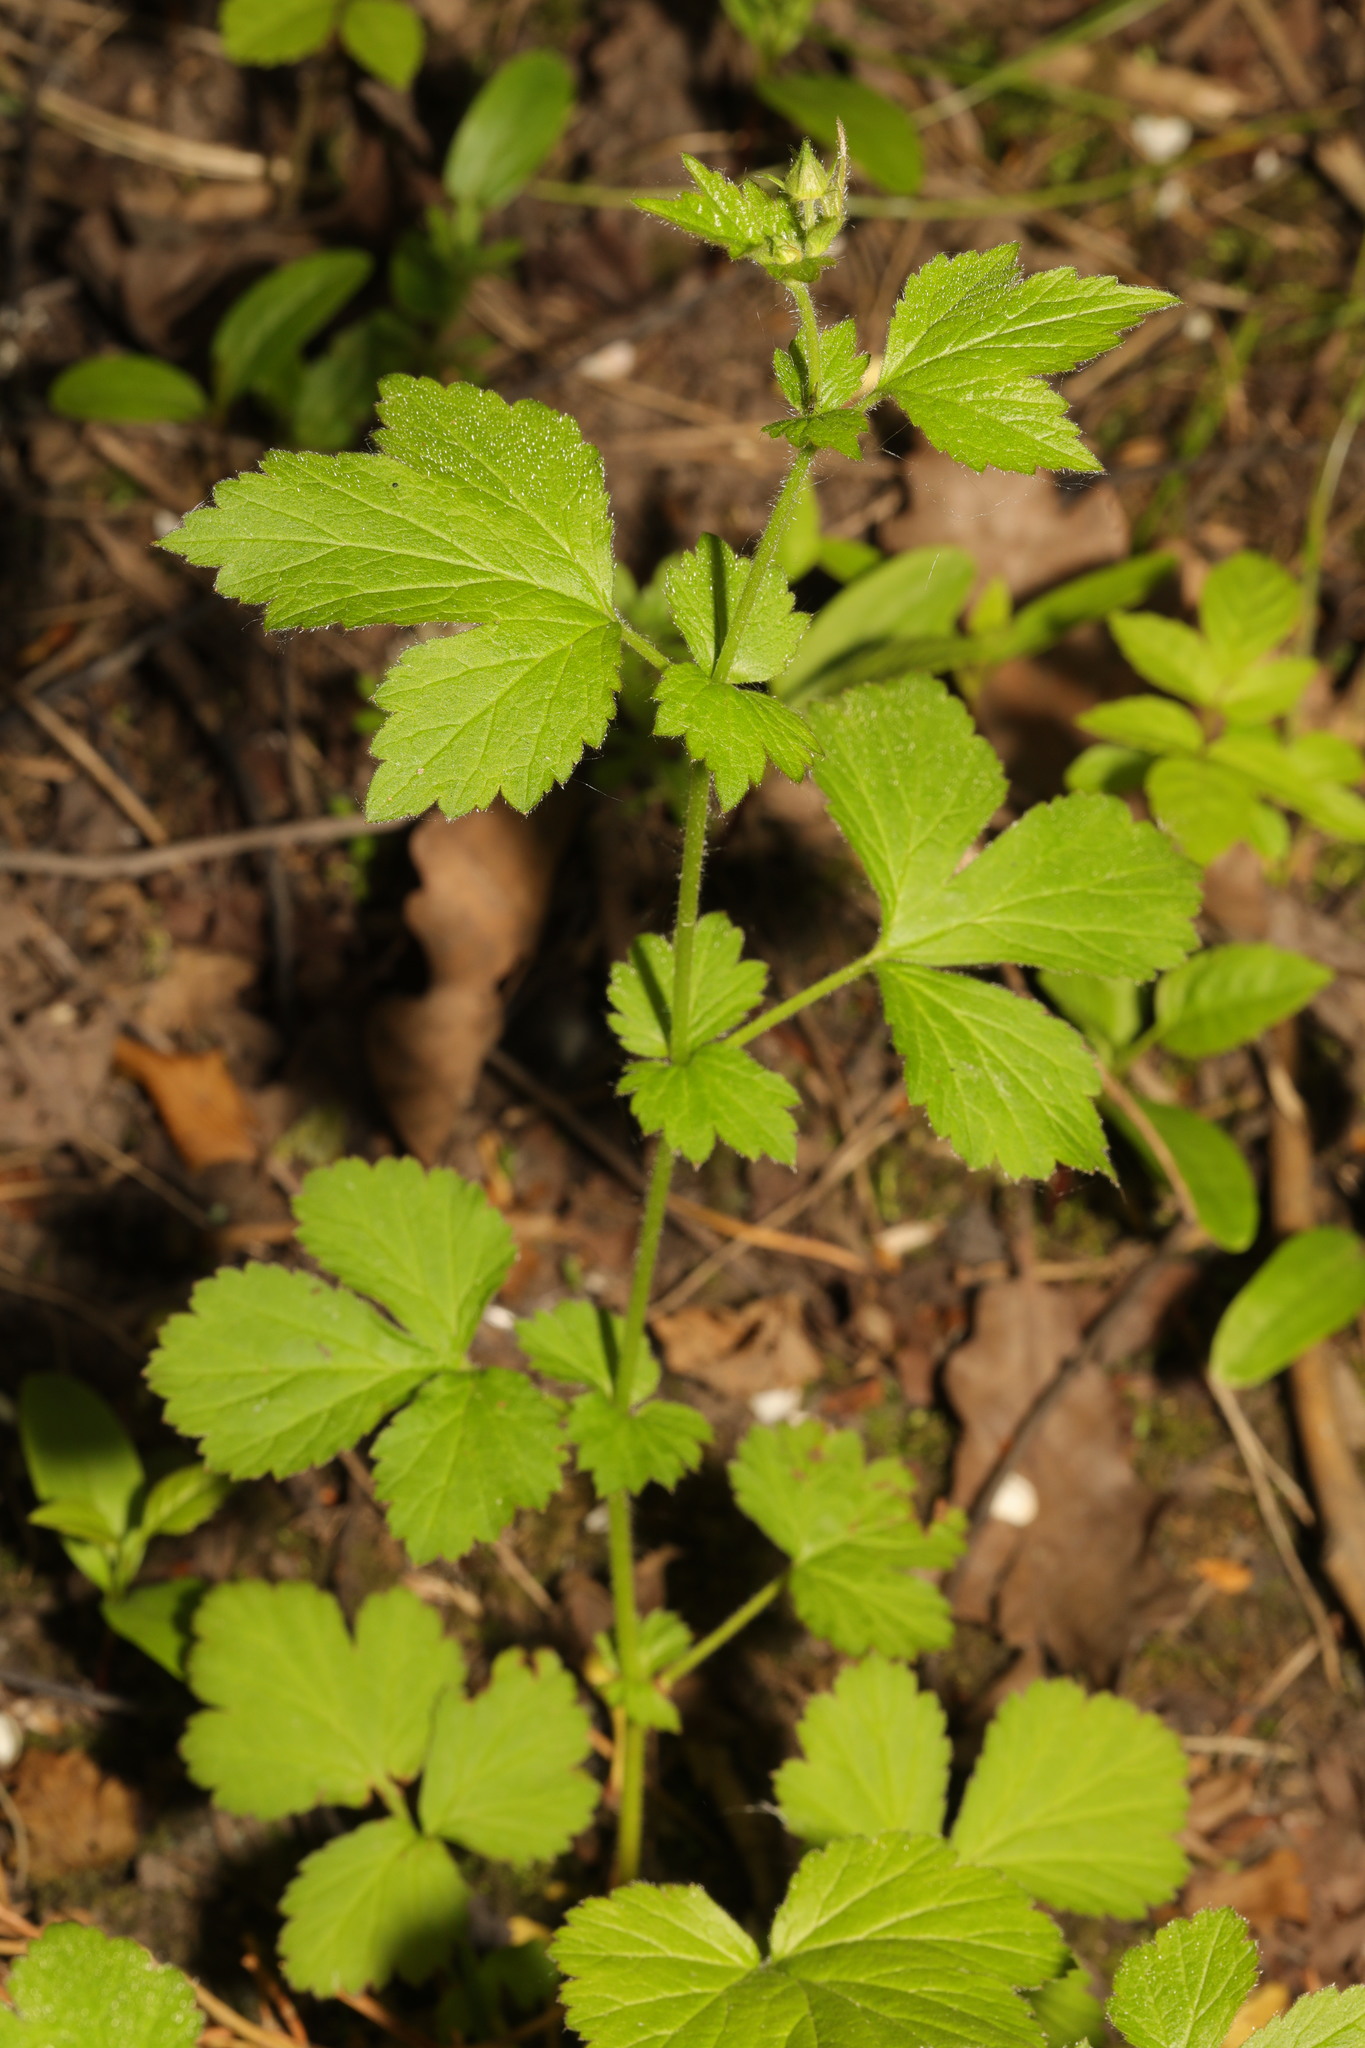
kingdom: Plantae
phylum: Tracheophyta
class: Magnoliopsida
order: Rosales
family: Rosaceae
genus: Geum
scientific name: Geum urbanum
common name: Wood avens
